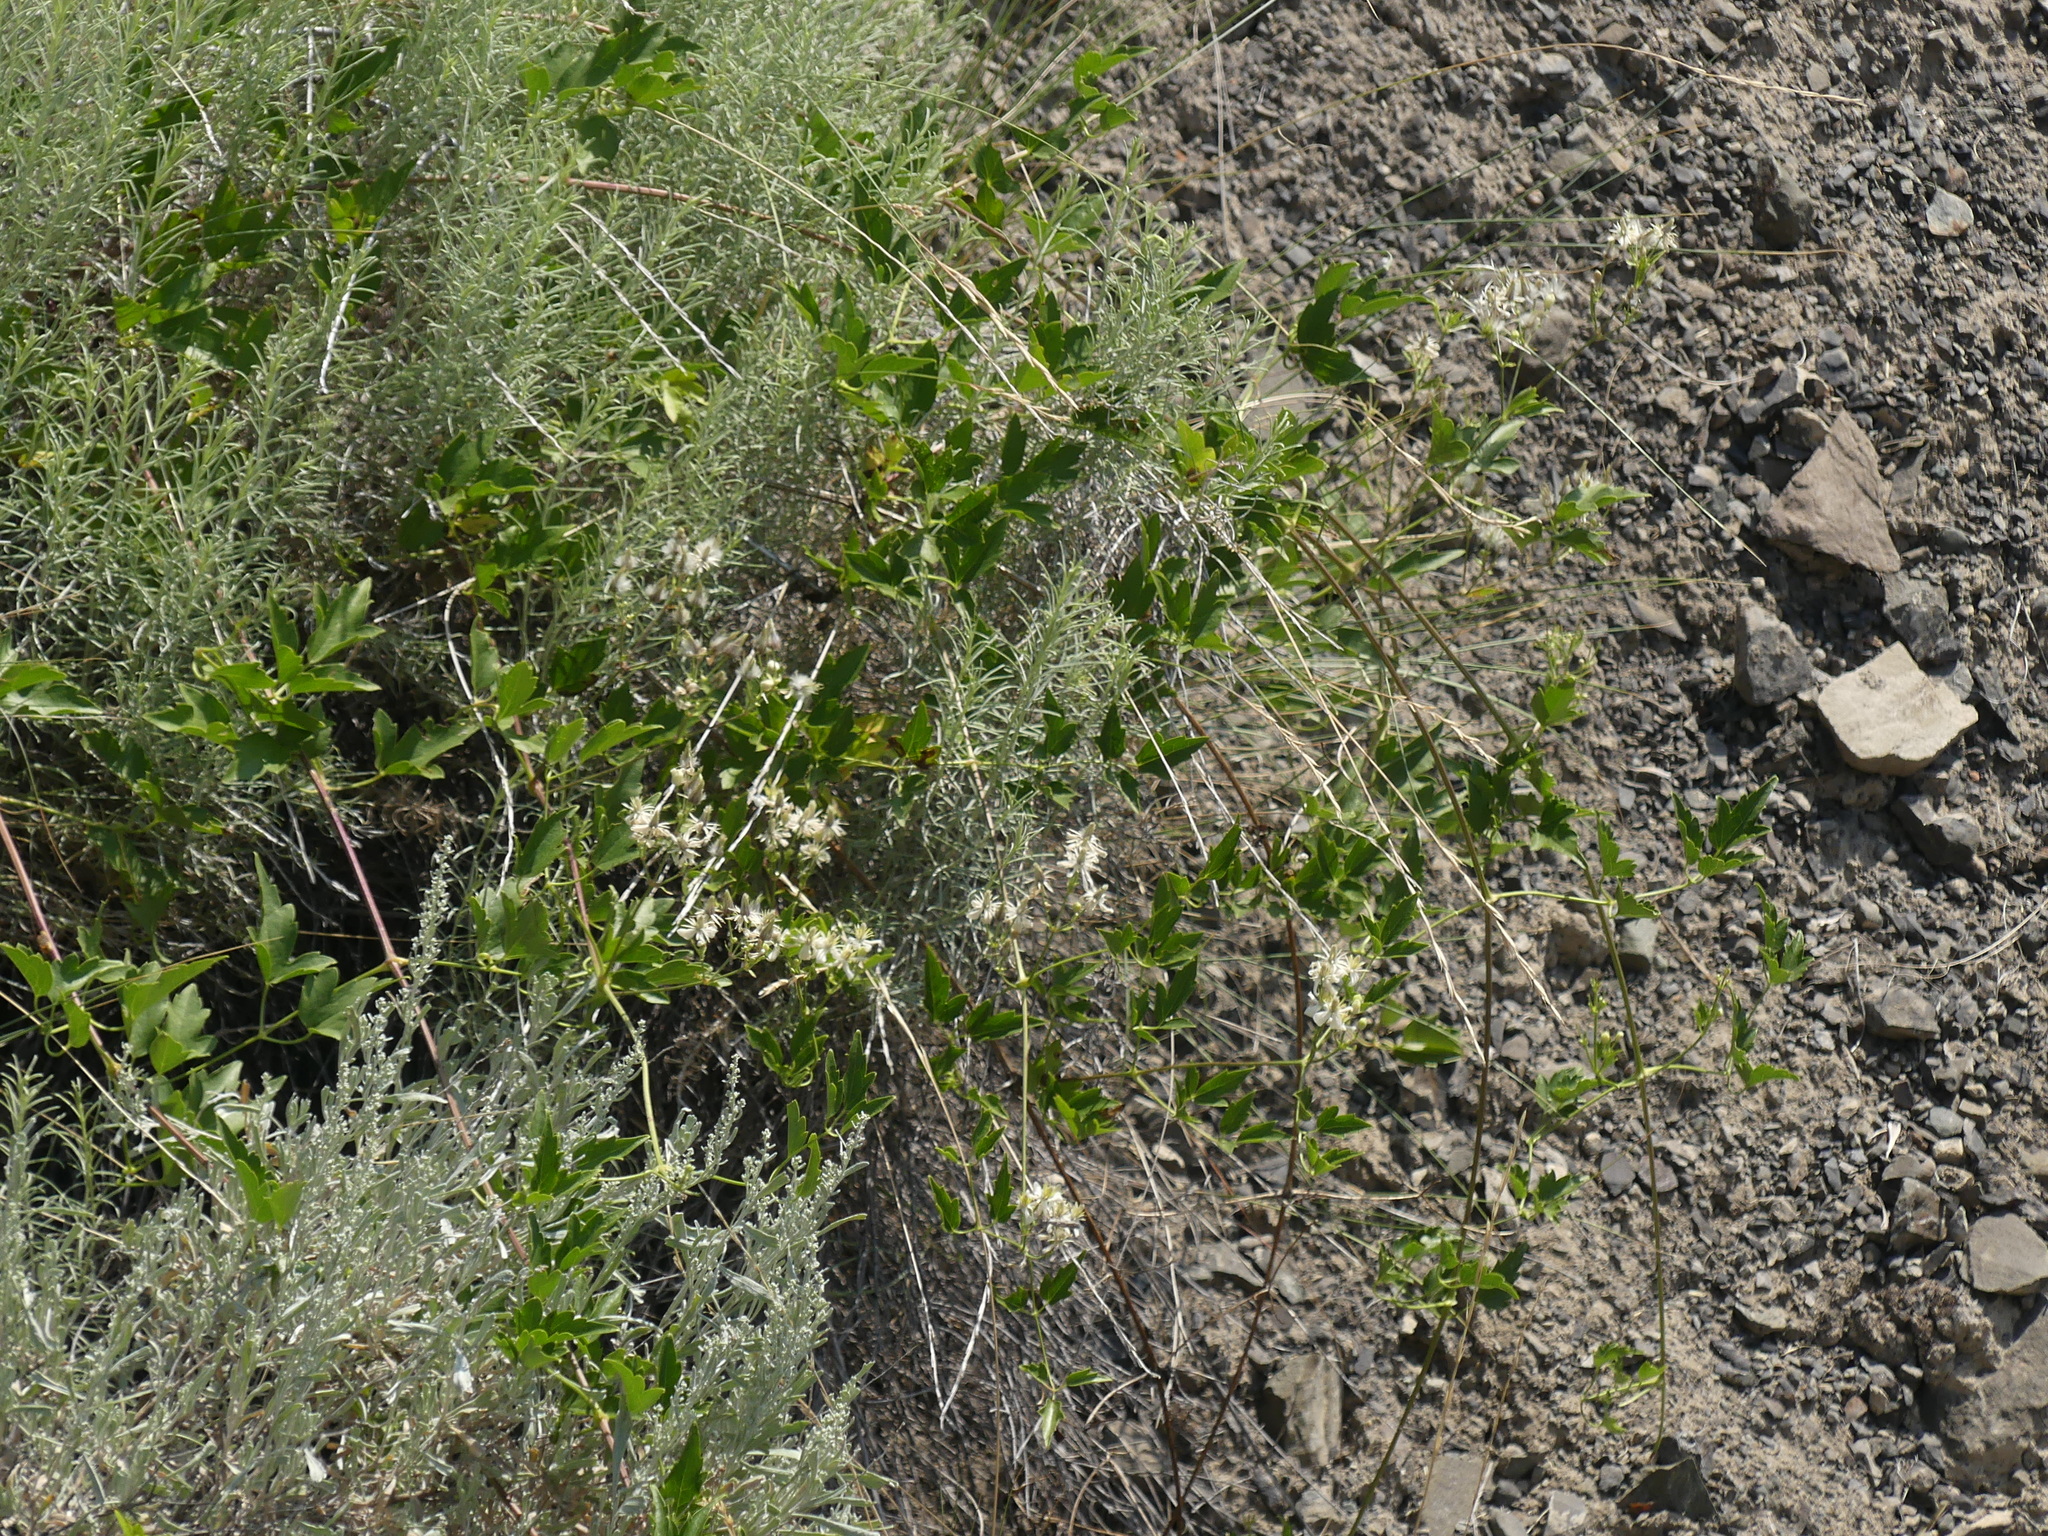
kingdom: Plantae
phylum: Tracheophyta
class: Magnoliopsida
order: Ranunculales
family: Ranunculaceae
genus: Clematis
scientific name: Clematis ligusticifolia
